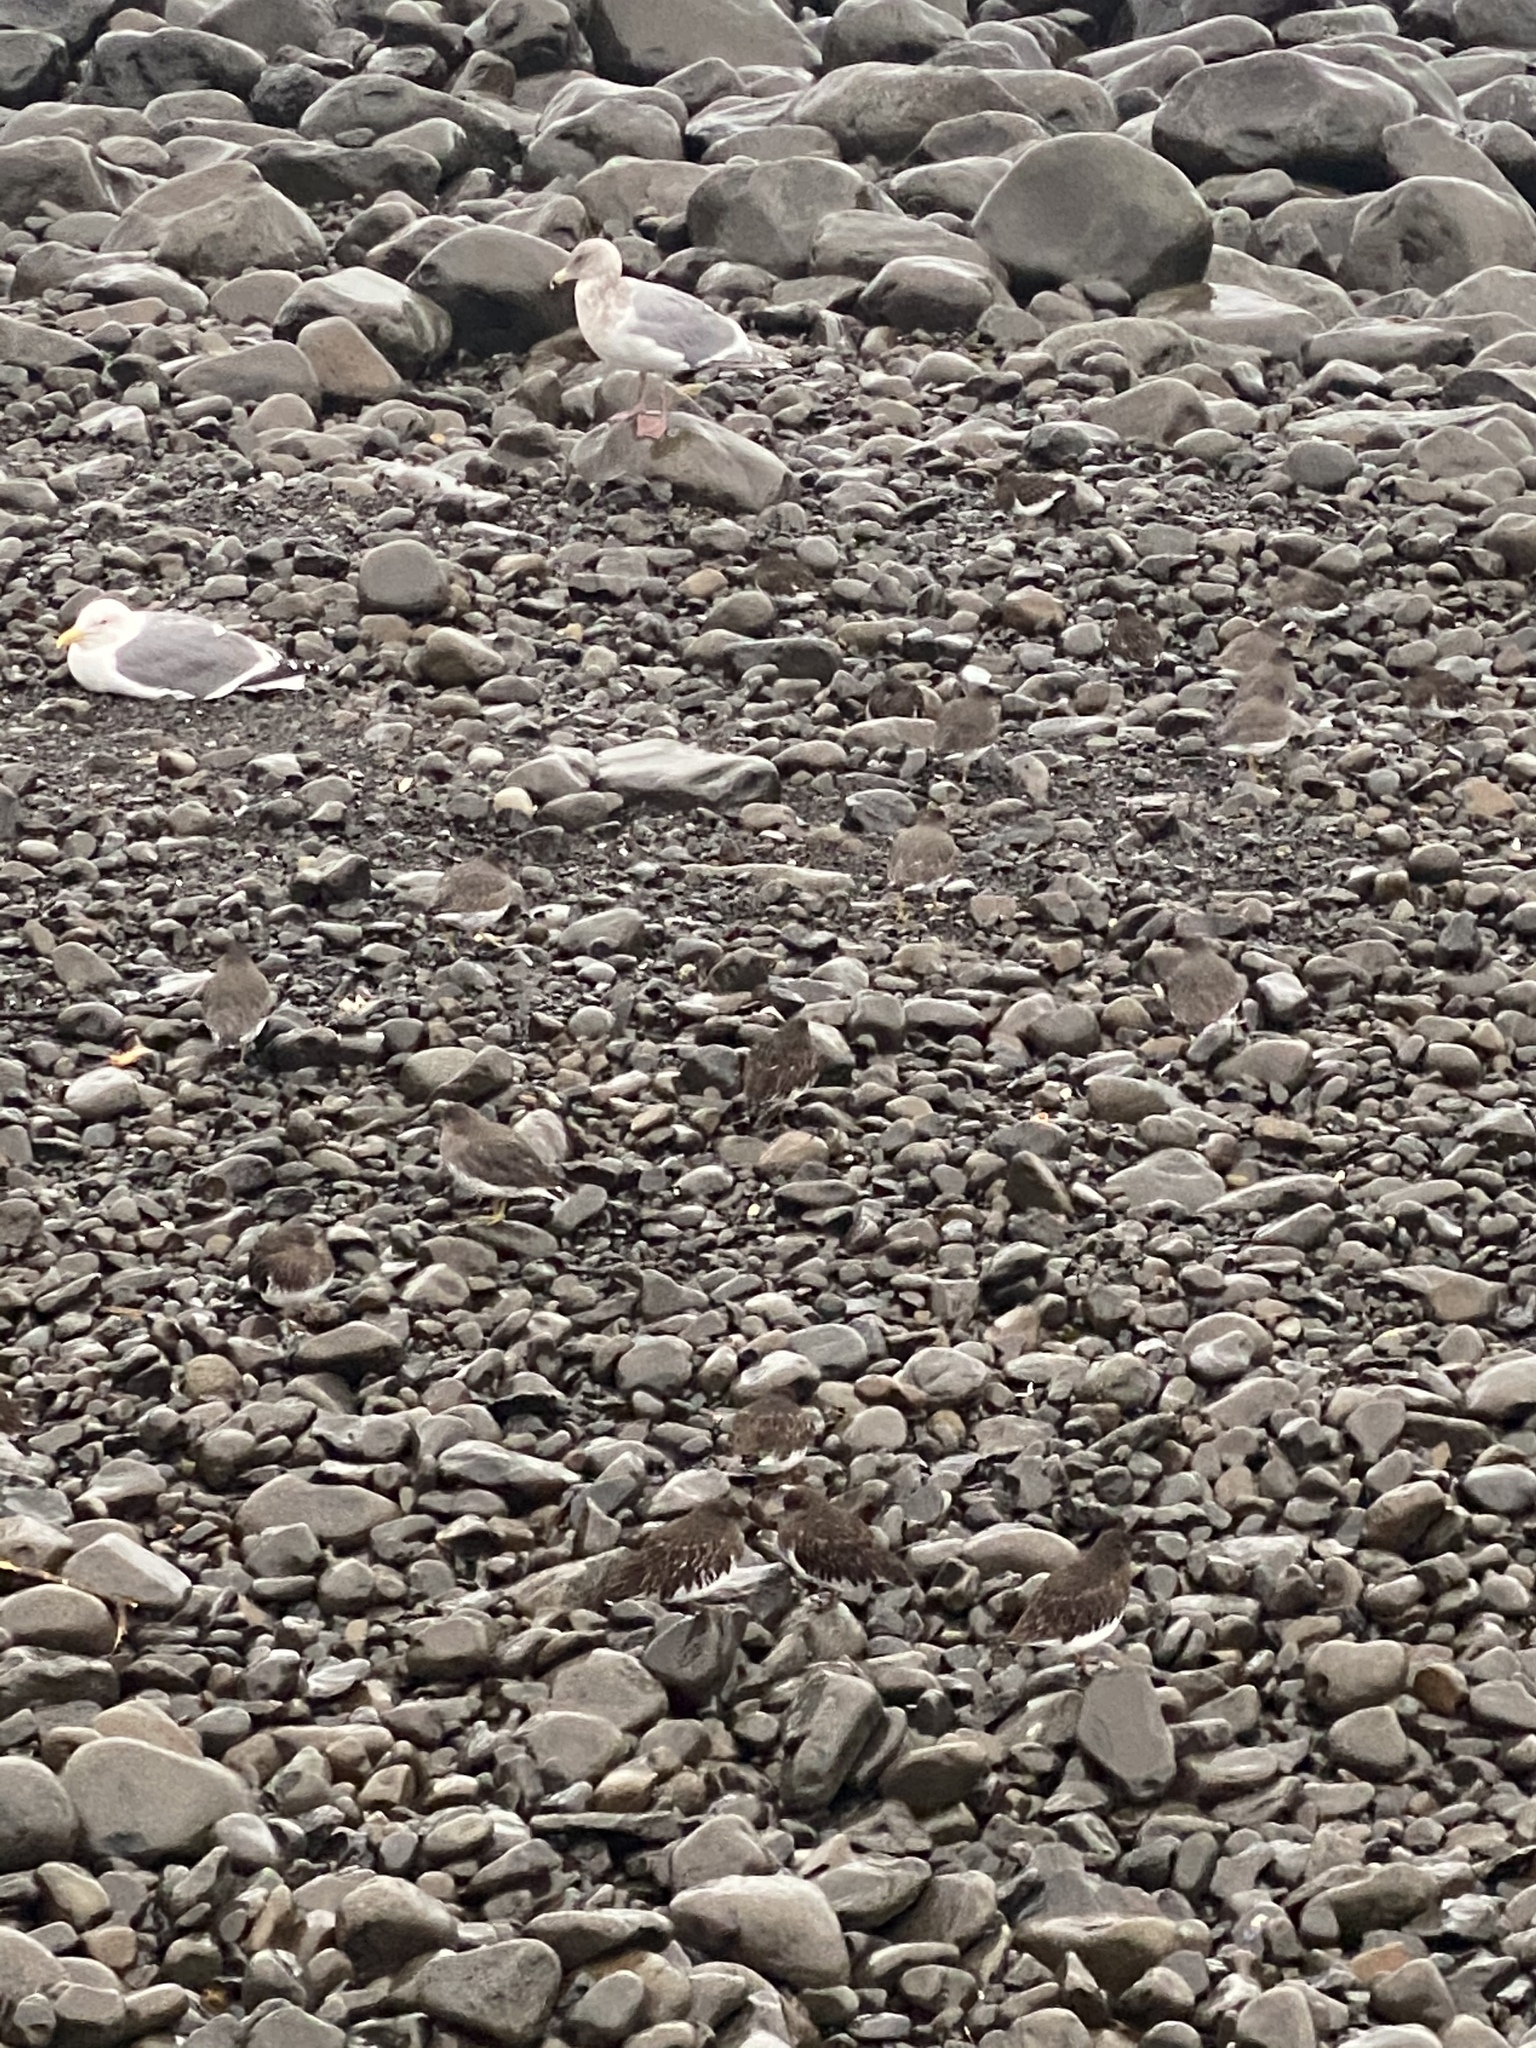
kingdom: Animalia
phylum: Chordata
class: Aves
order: Charadriiformes
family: Scolopacidae
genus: Calidris
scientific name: Calidris virgata
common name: Surfbird
